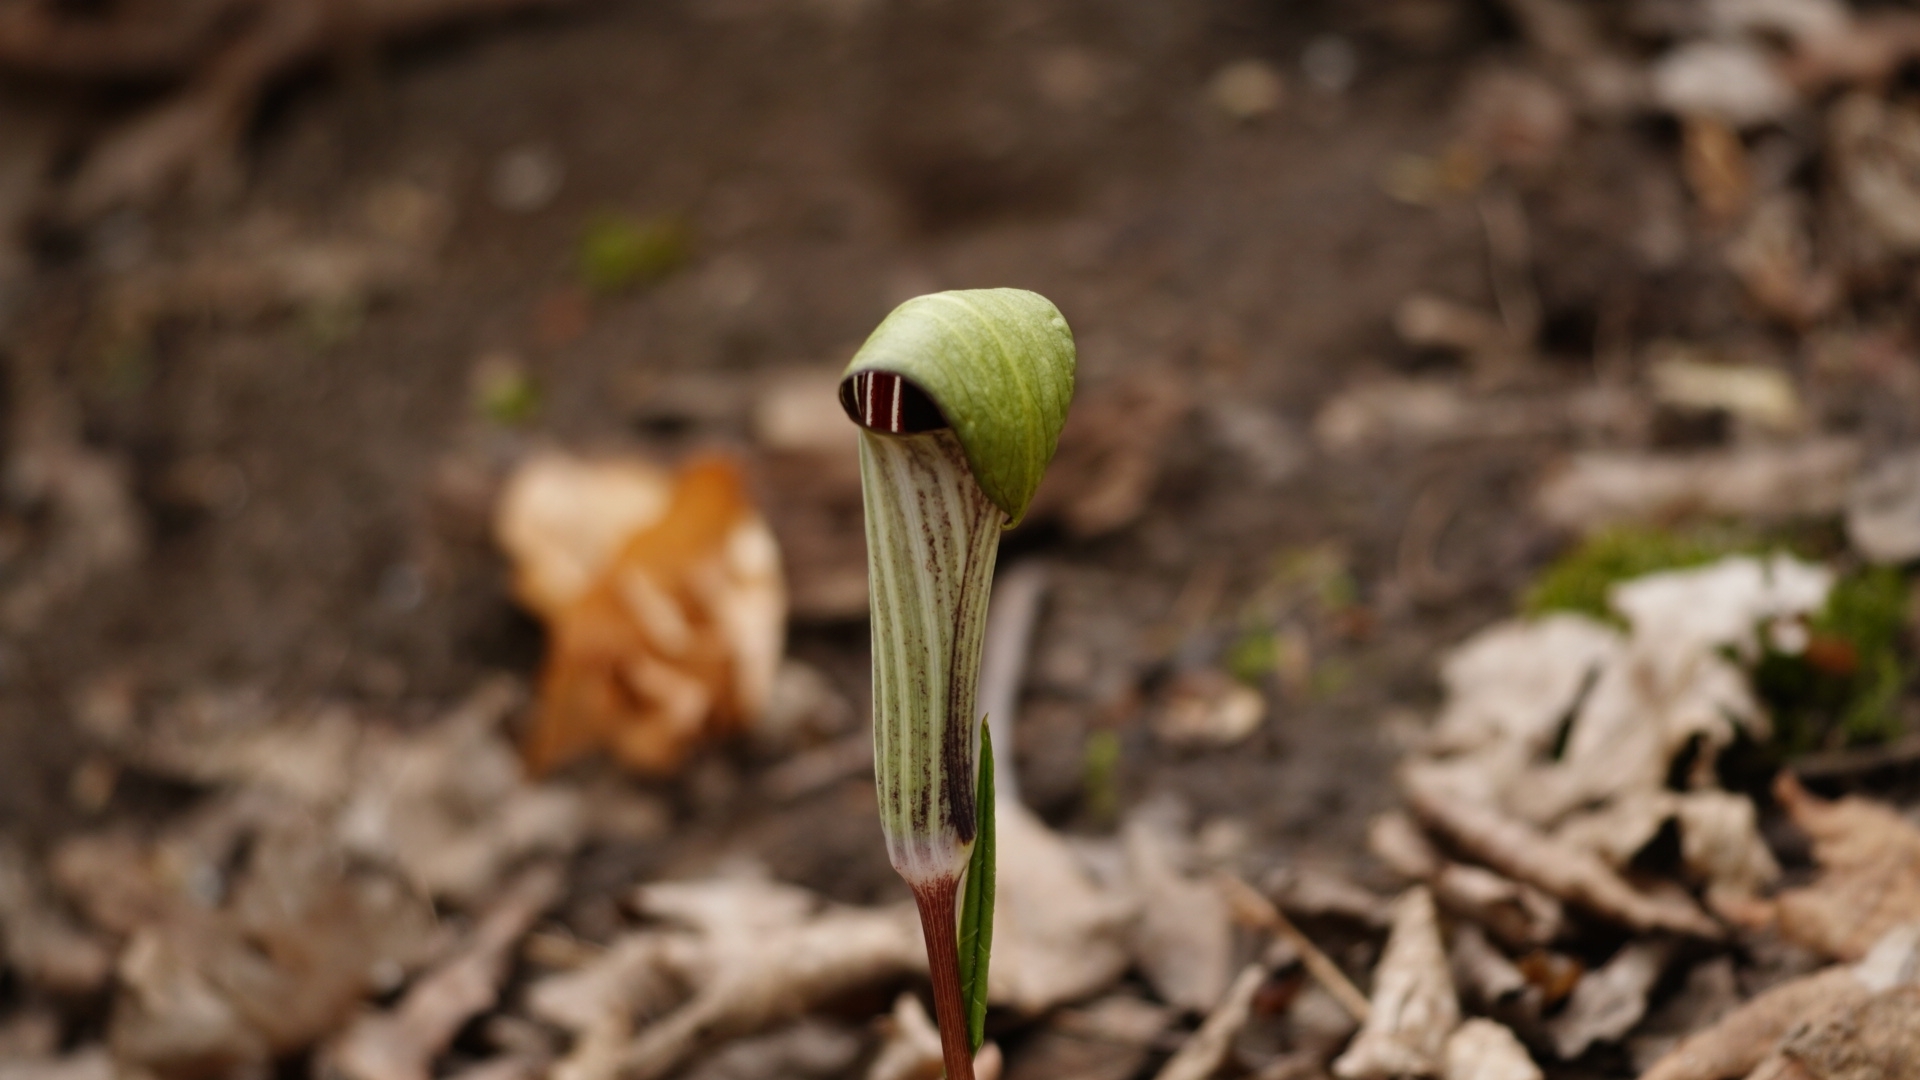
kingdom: Plantae
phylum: Tracheophyta
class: Liliopsida
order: Alismatales
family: Araceae
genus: Arisaema
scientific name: Arisaema triphyllum
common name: Jack-in-the-pulpit
